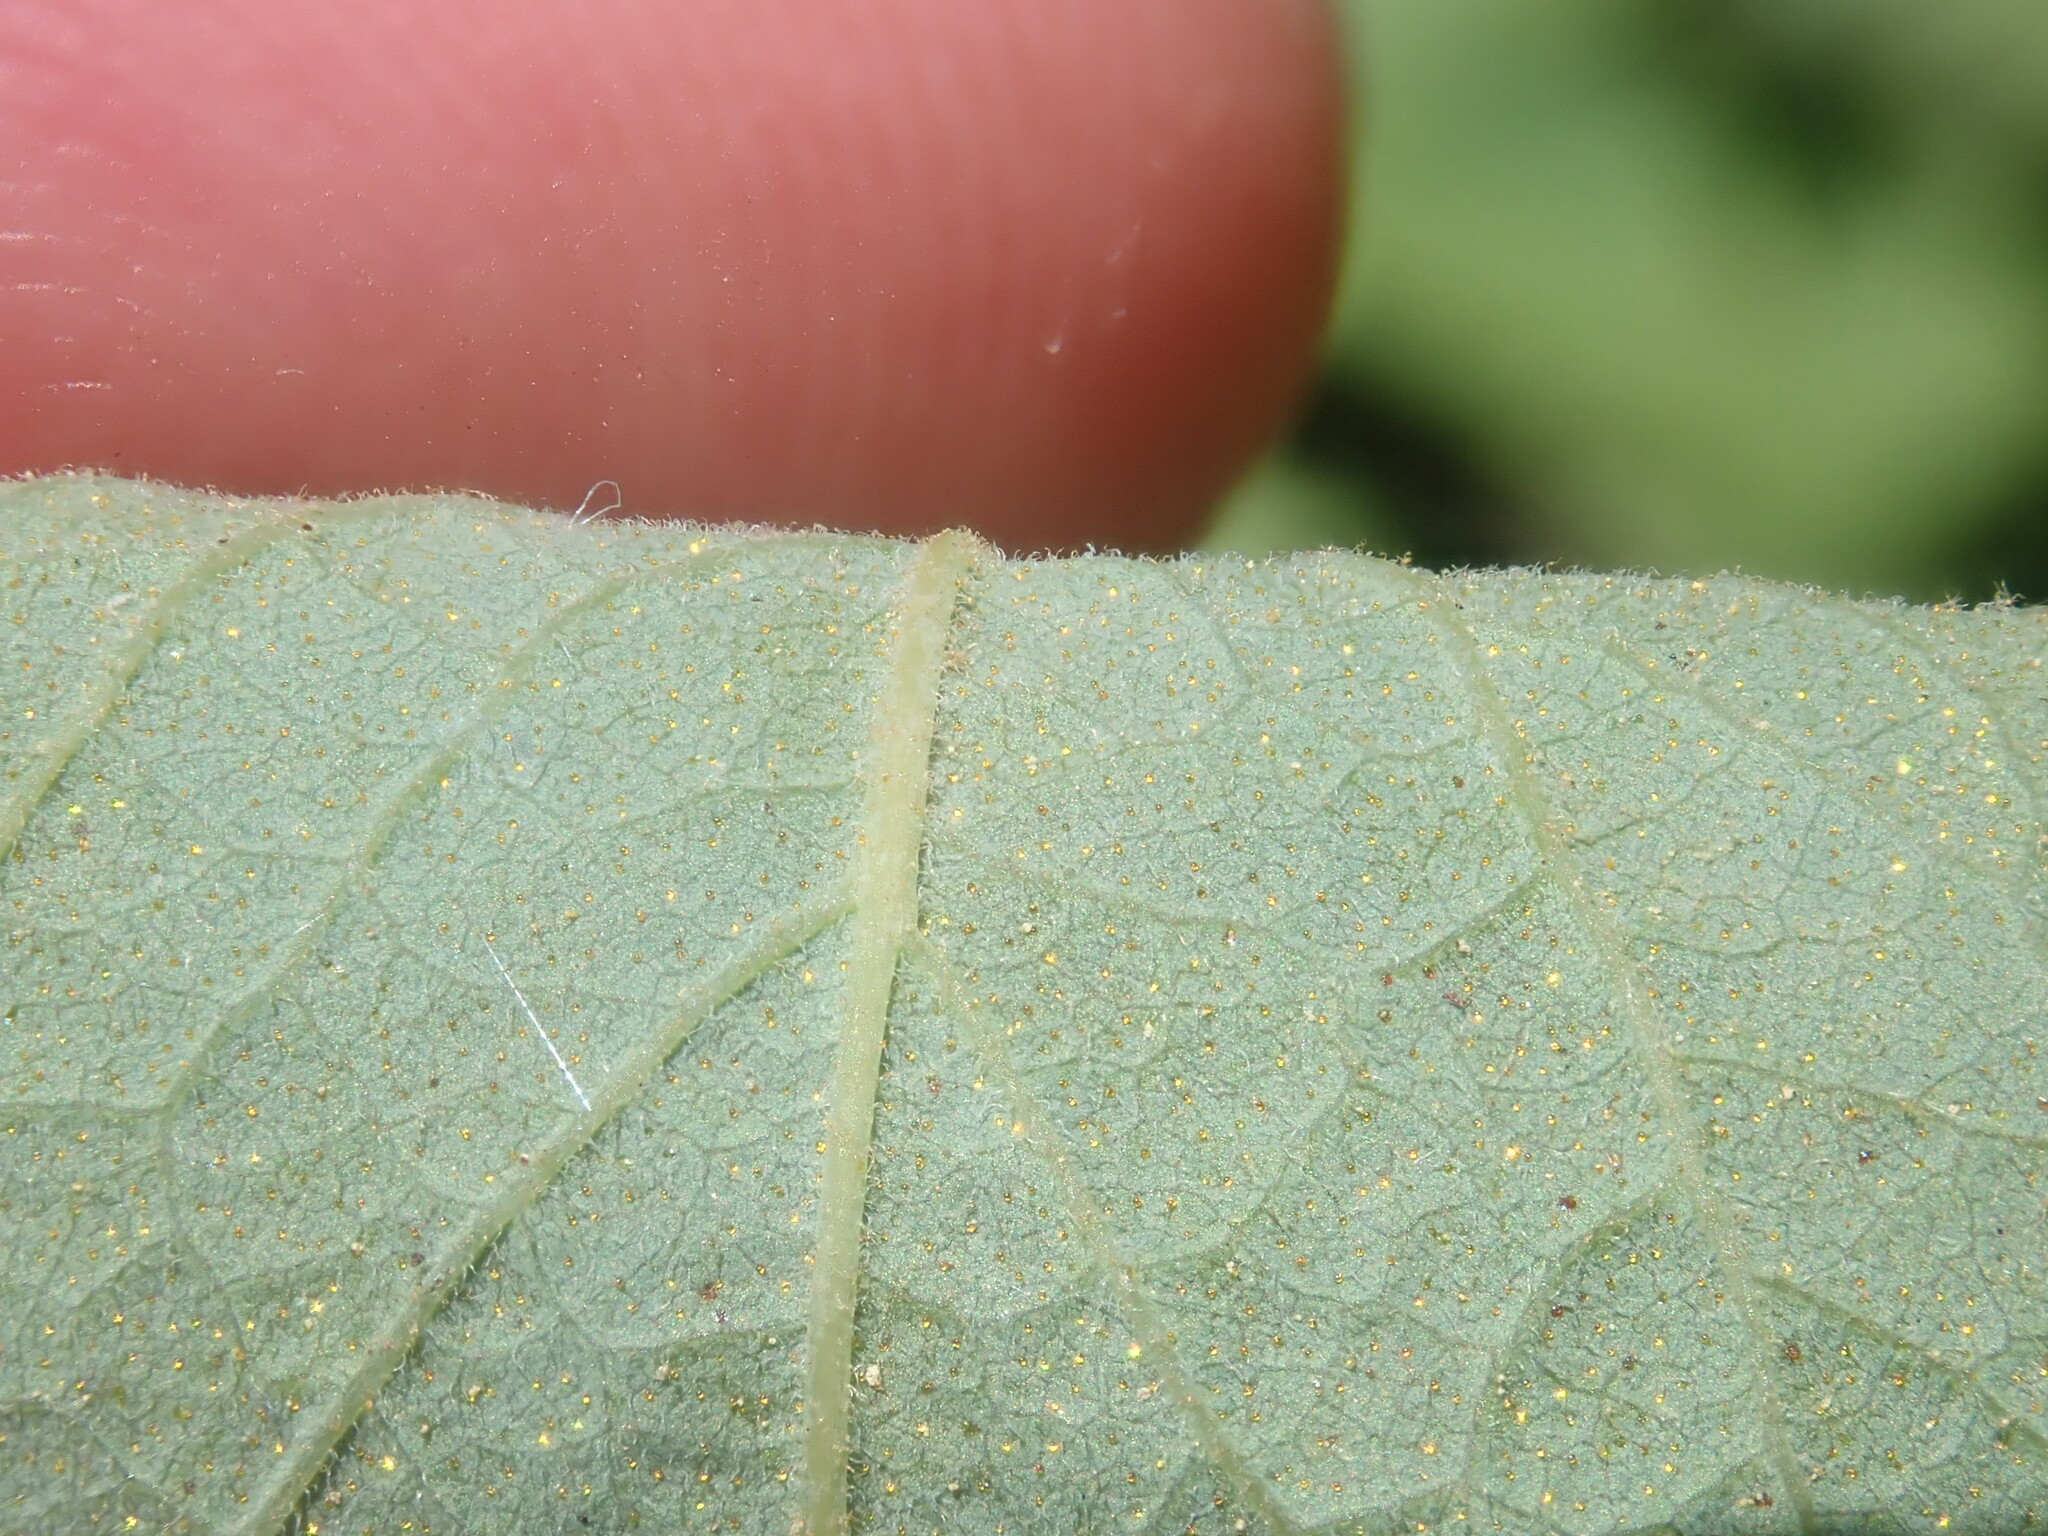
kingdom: Plantae
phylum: Tracheophyta
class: Magnoliopsida
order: Ericales
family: Ericaceae
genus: Gaylussacia
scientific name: Gaylussacia frondosa
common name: Dangleberry
